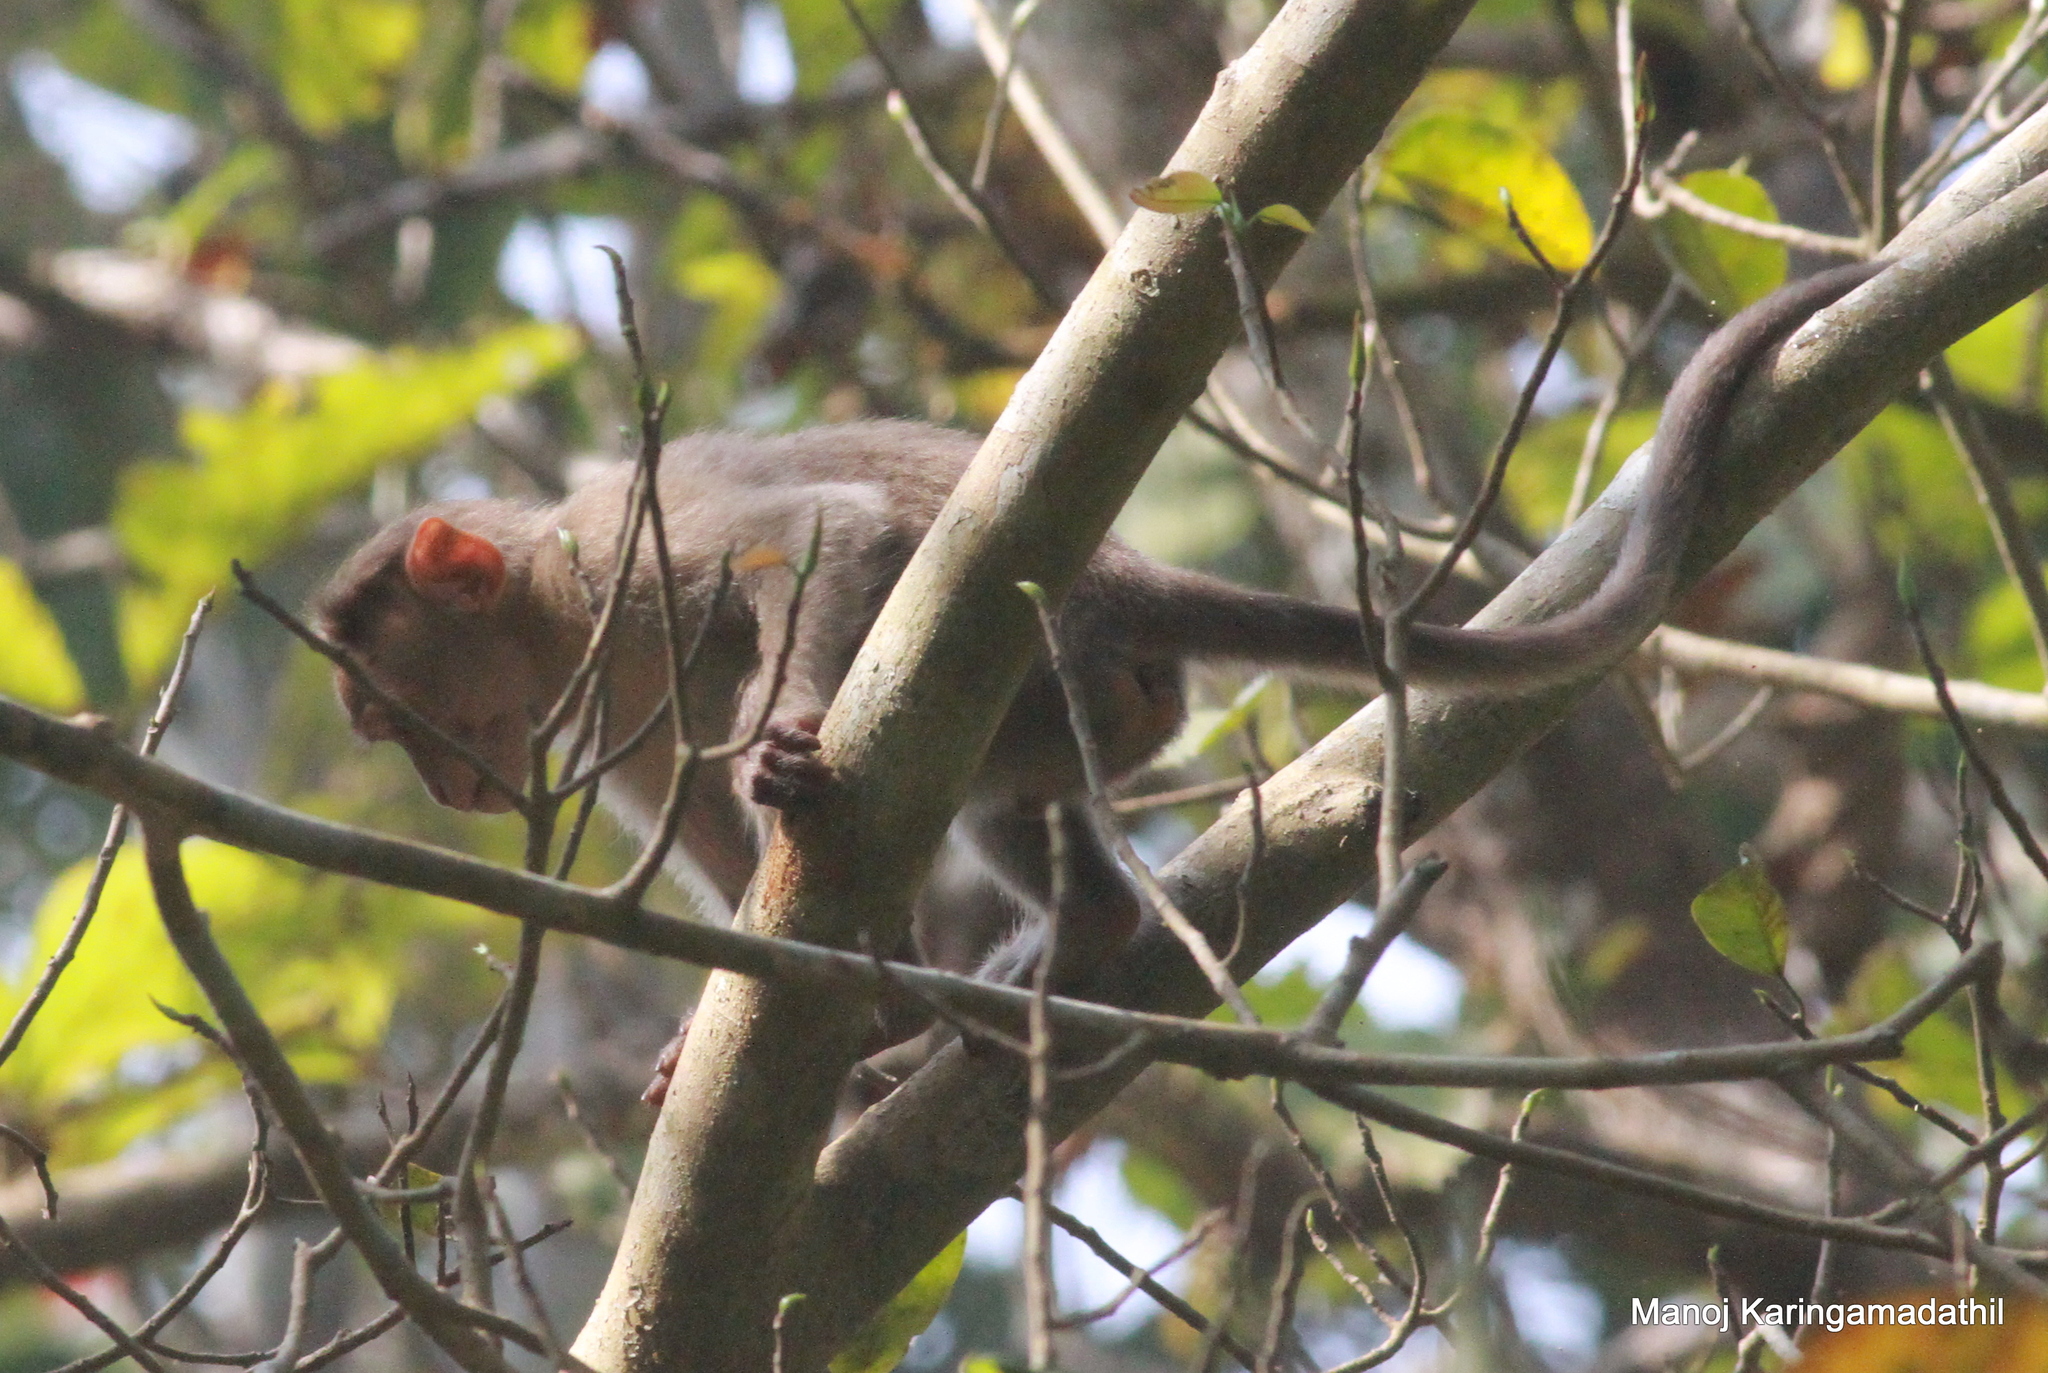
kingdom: Animalia
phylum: Chordata
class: Mammalia
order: Primates
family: Cercopithecidae
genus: Macaca
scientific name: Macaca radiata
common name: Bonnet macaque
